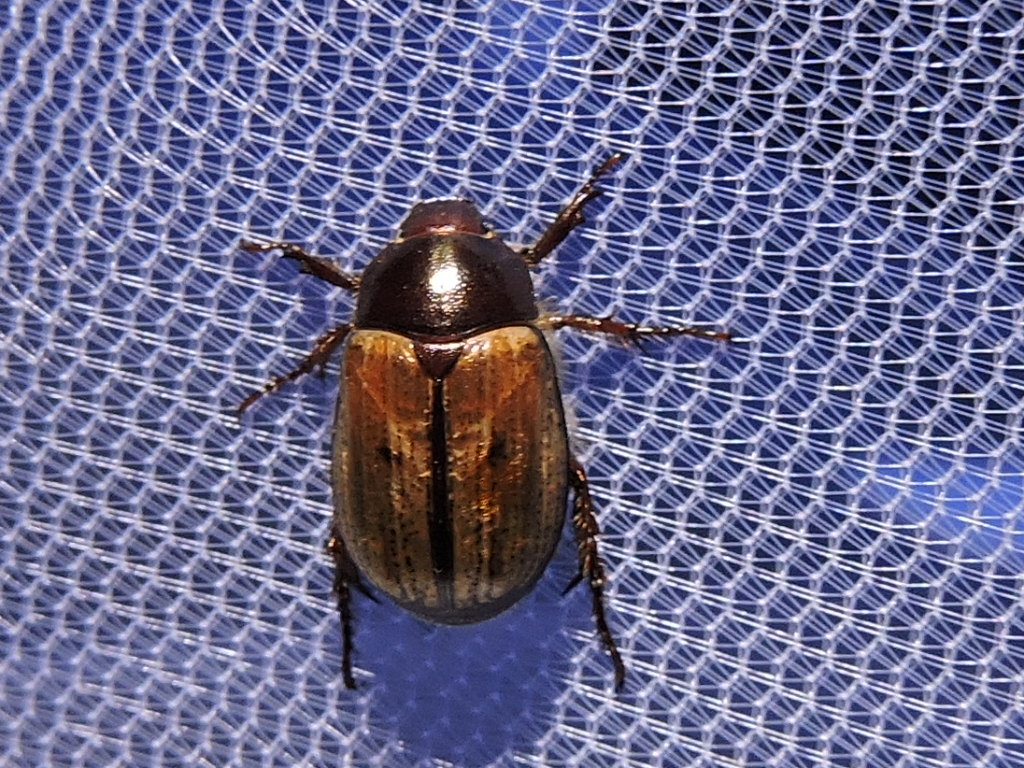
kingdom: Animalia
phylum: Arthropoda
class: Insecta
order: Coleoptera
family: Scarabaeidae
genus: Paranomala
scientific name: Paranomala binotata
